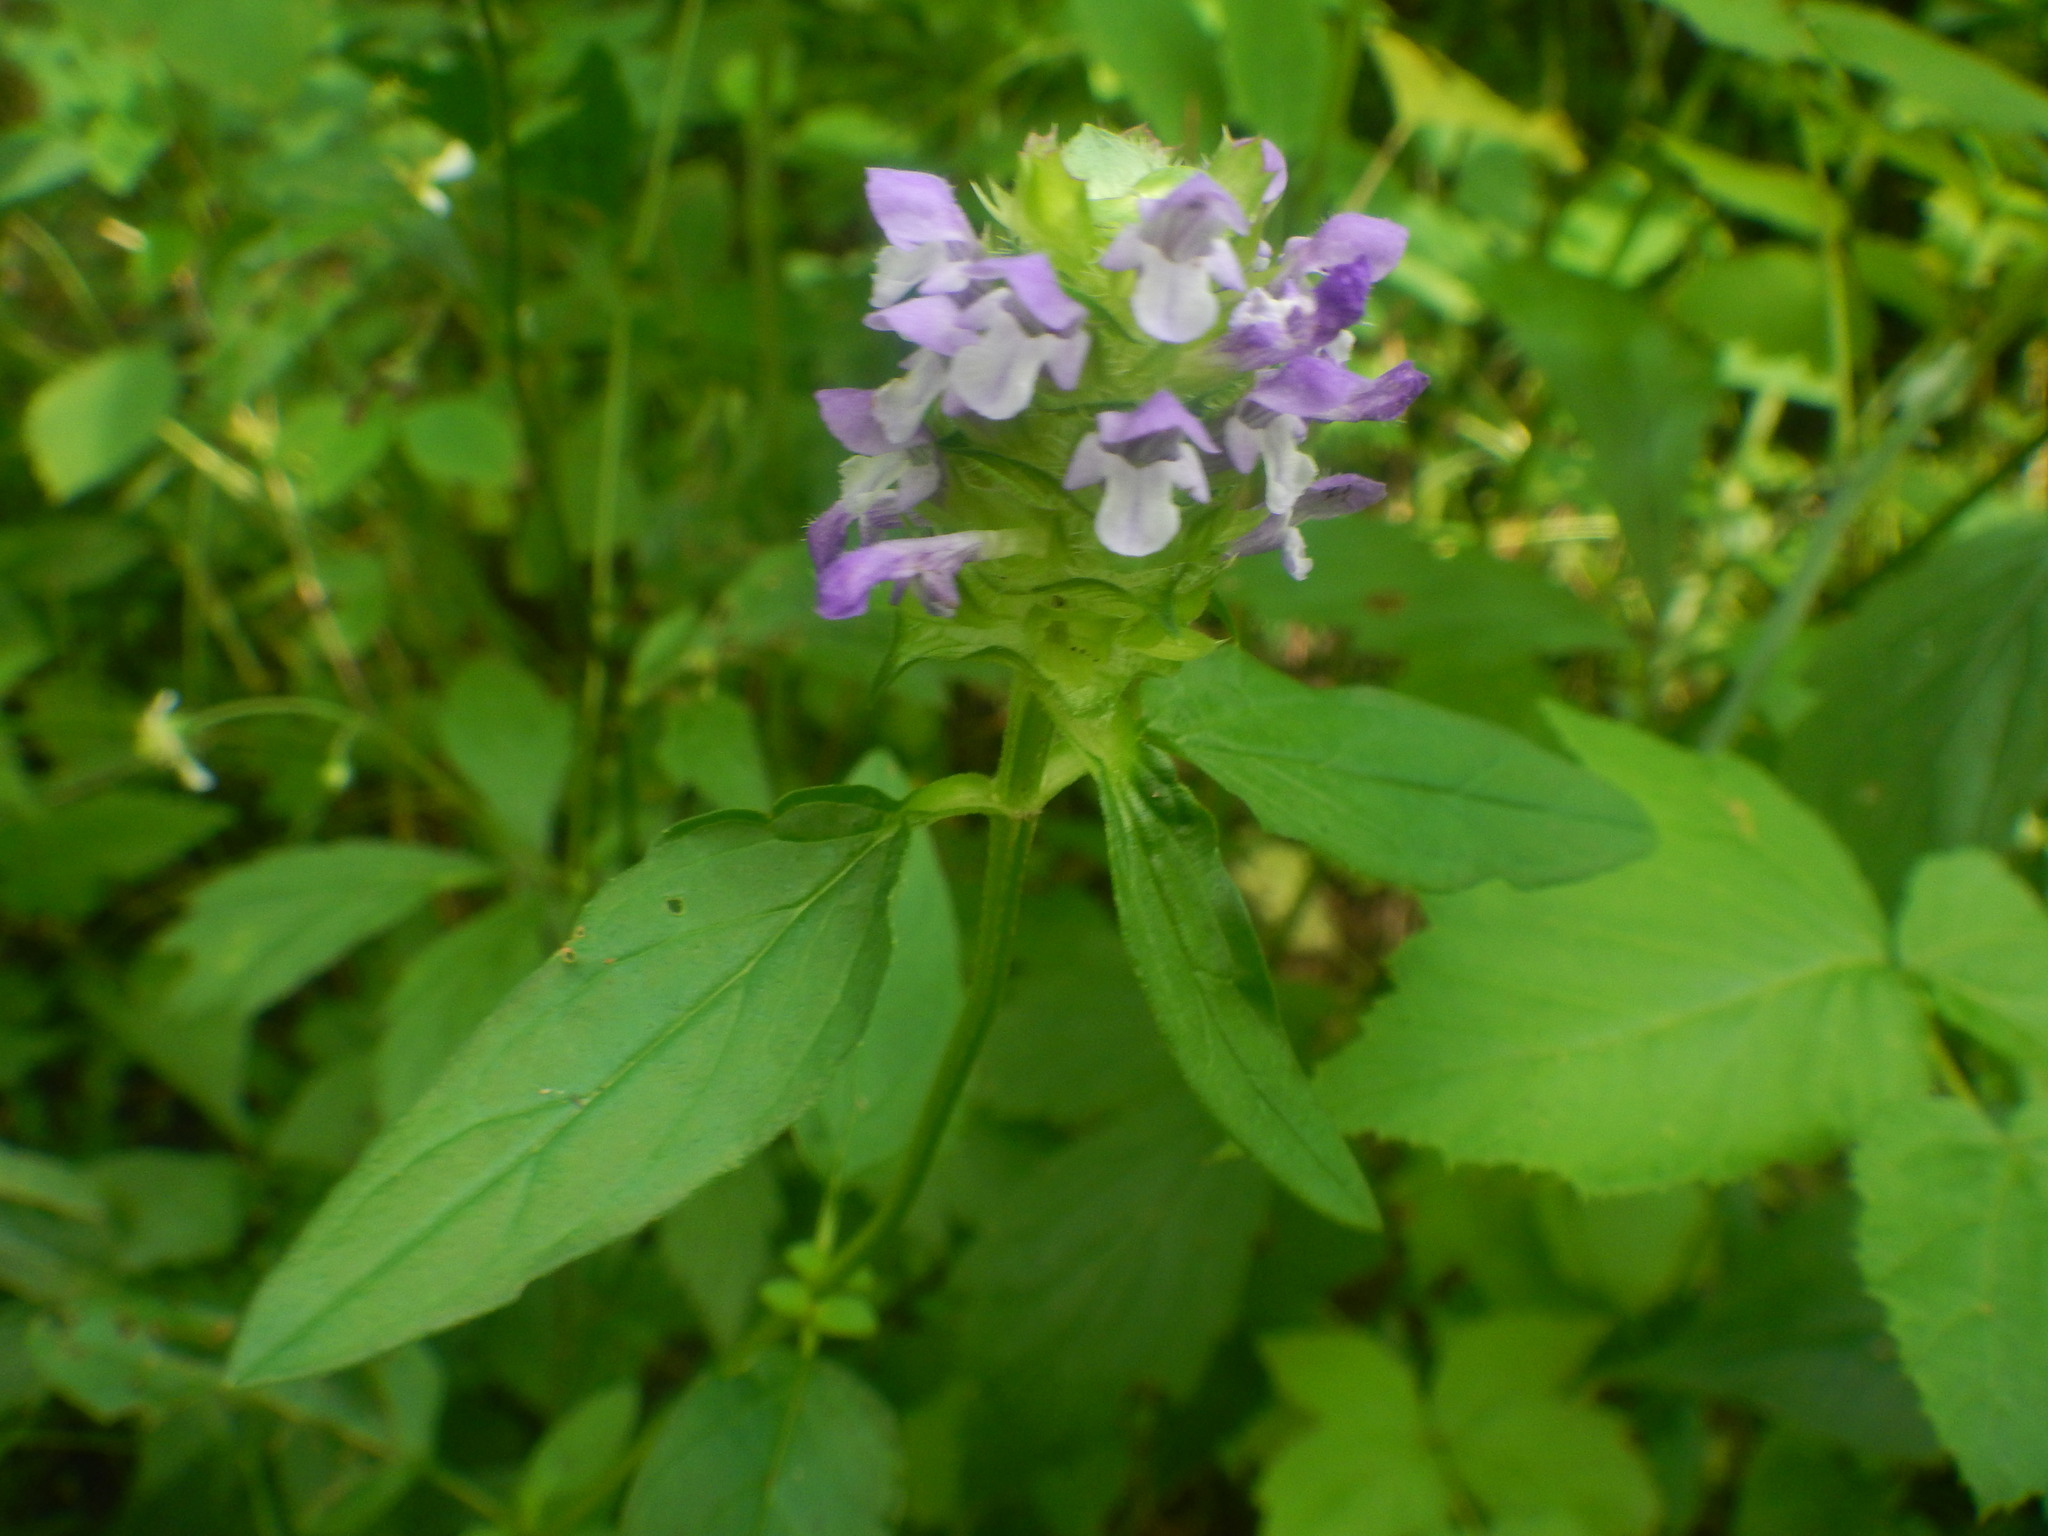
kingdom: Plantae
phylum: Tracheophyta
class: Magnoliopsida
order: Lamiales
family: Lamiaceae
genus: Prunella
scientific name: Prunella vulgaris
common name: Heal-all
